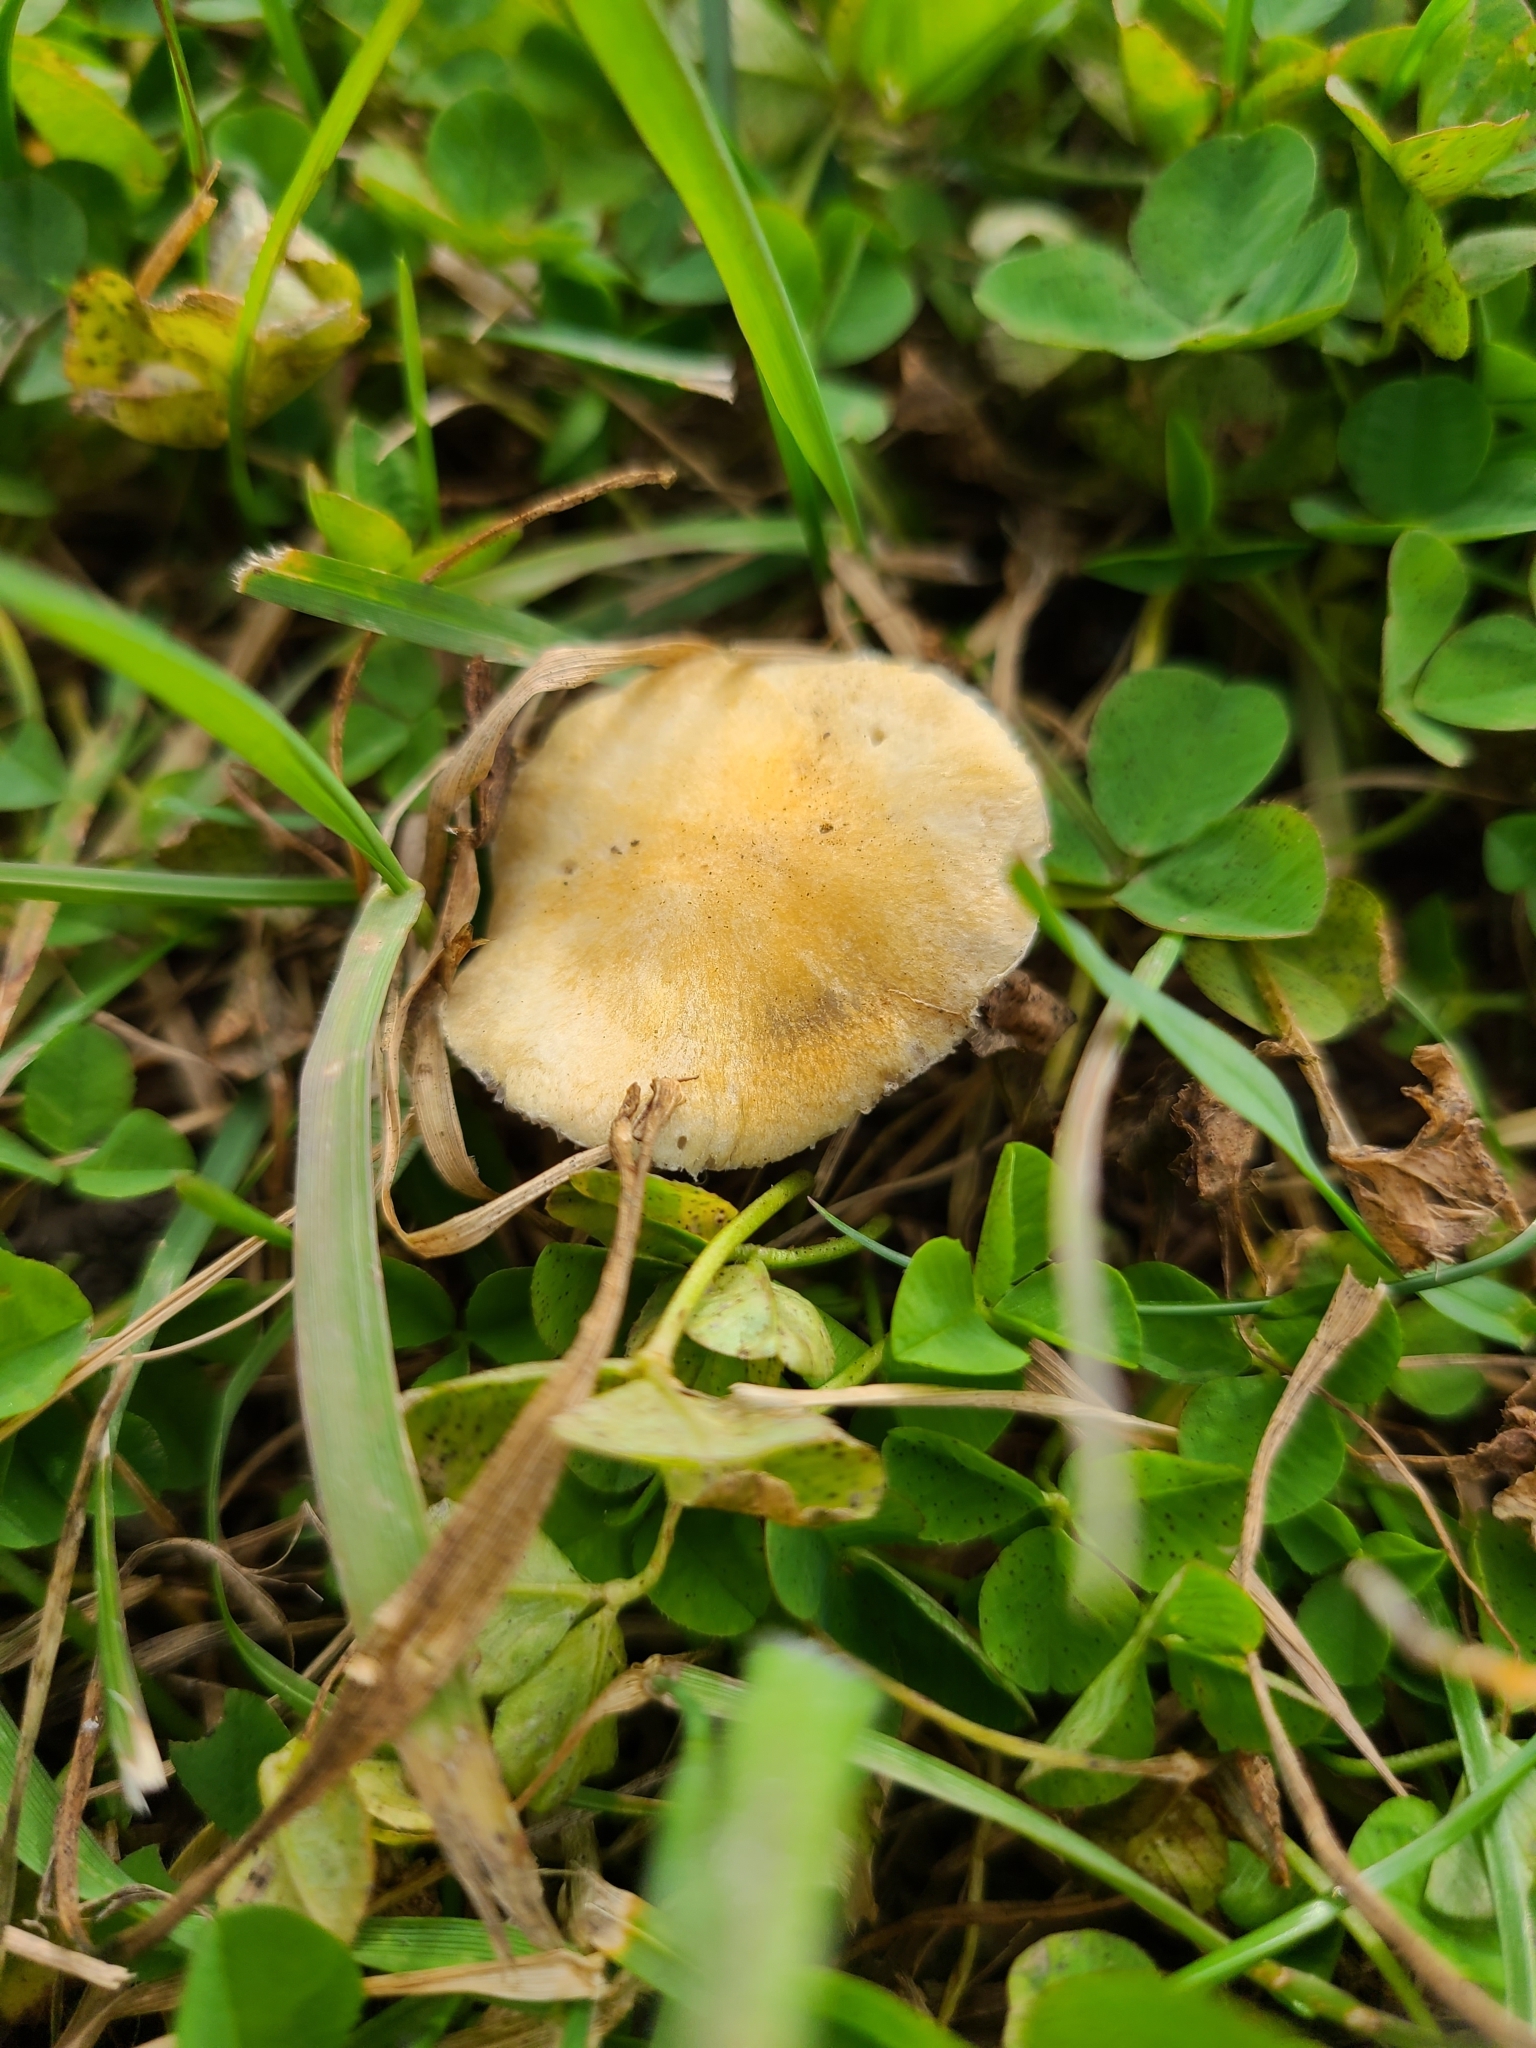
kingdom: Fungi
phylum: Basidiomycota
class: Agaricomycetes
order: Agaricales
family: Hymenogastraceae
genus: Psilocybe
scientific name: Psilocybe coronilla
